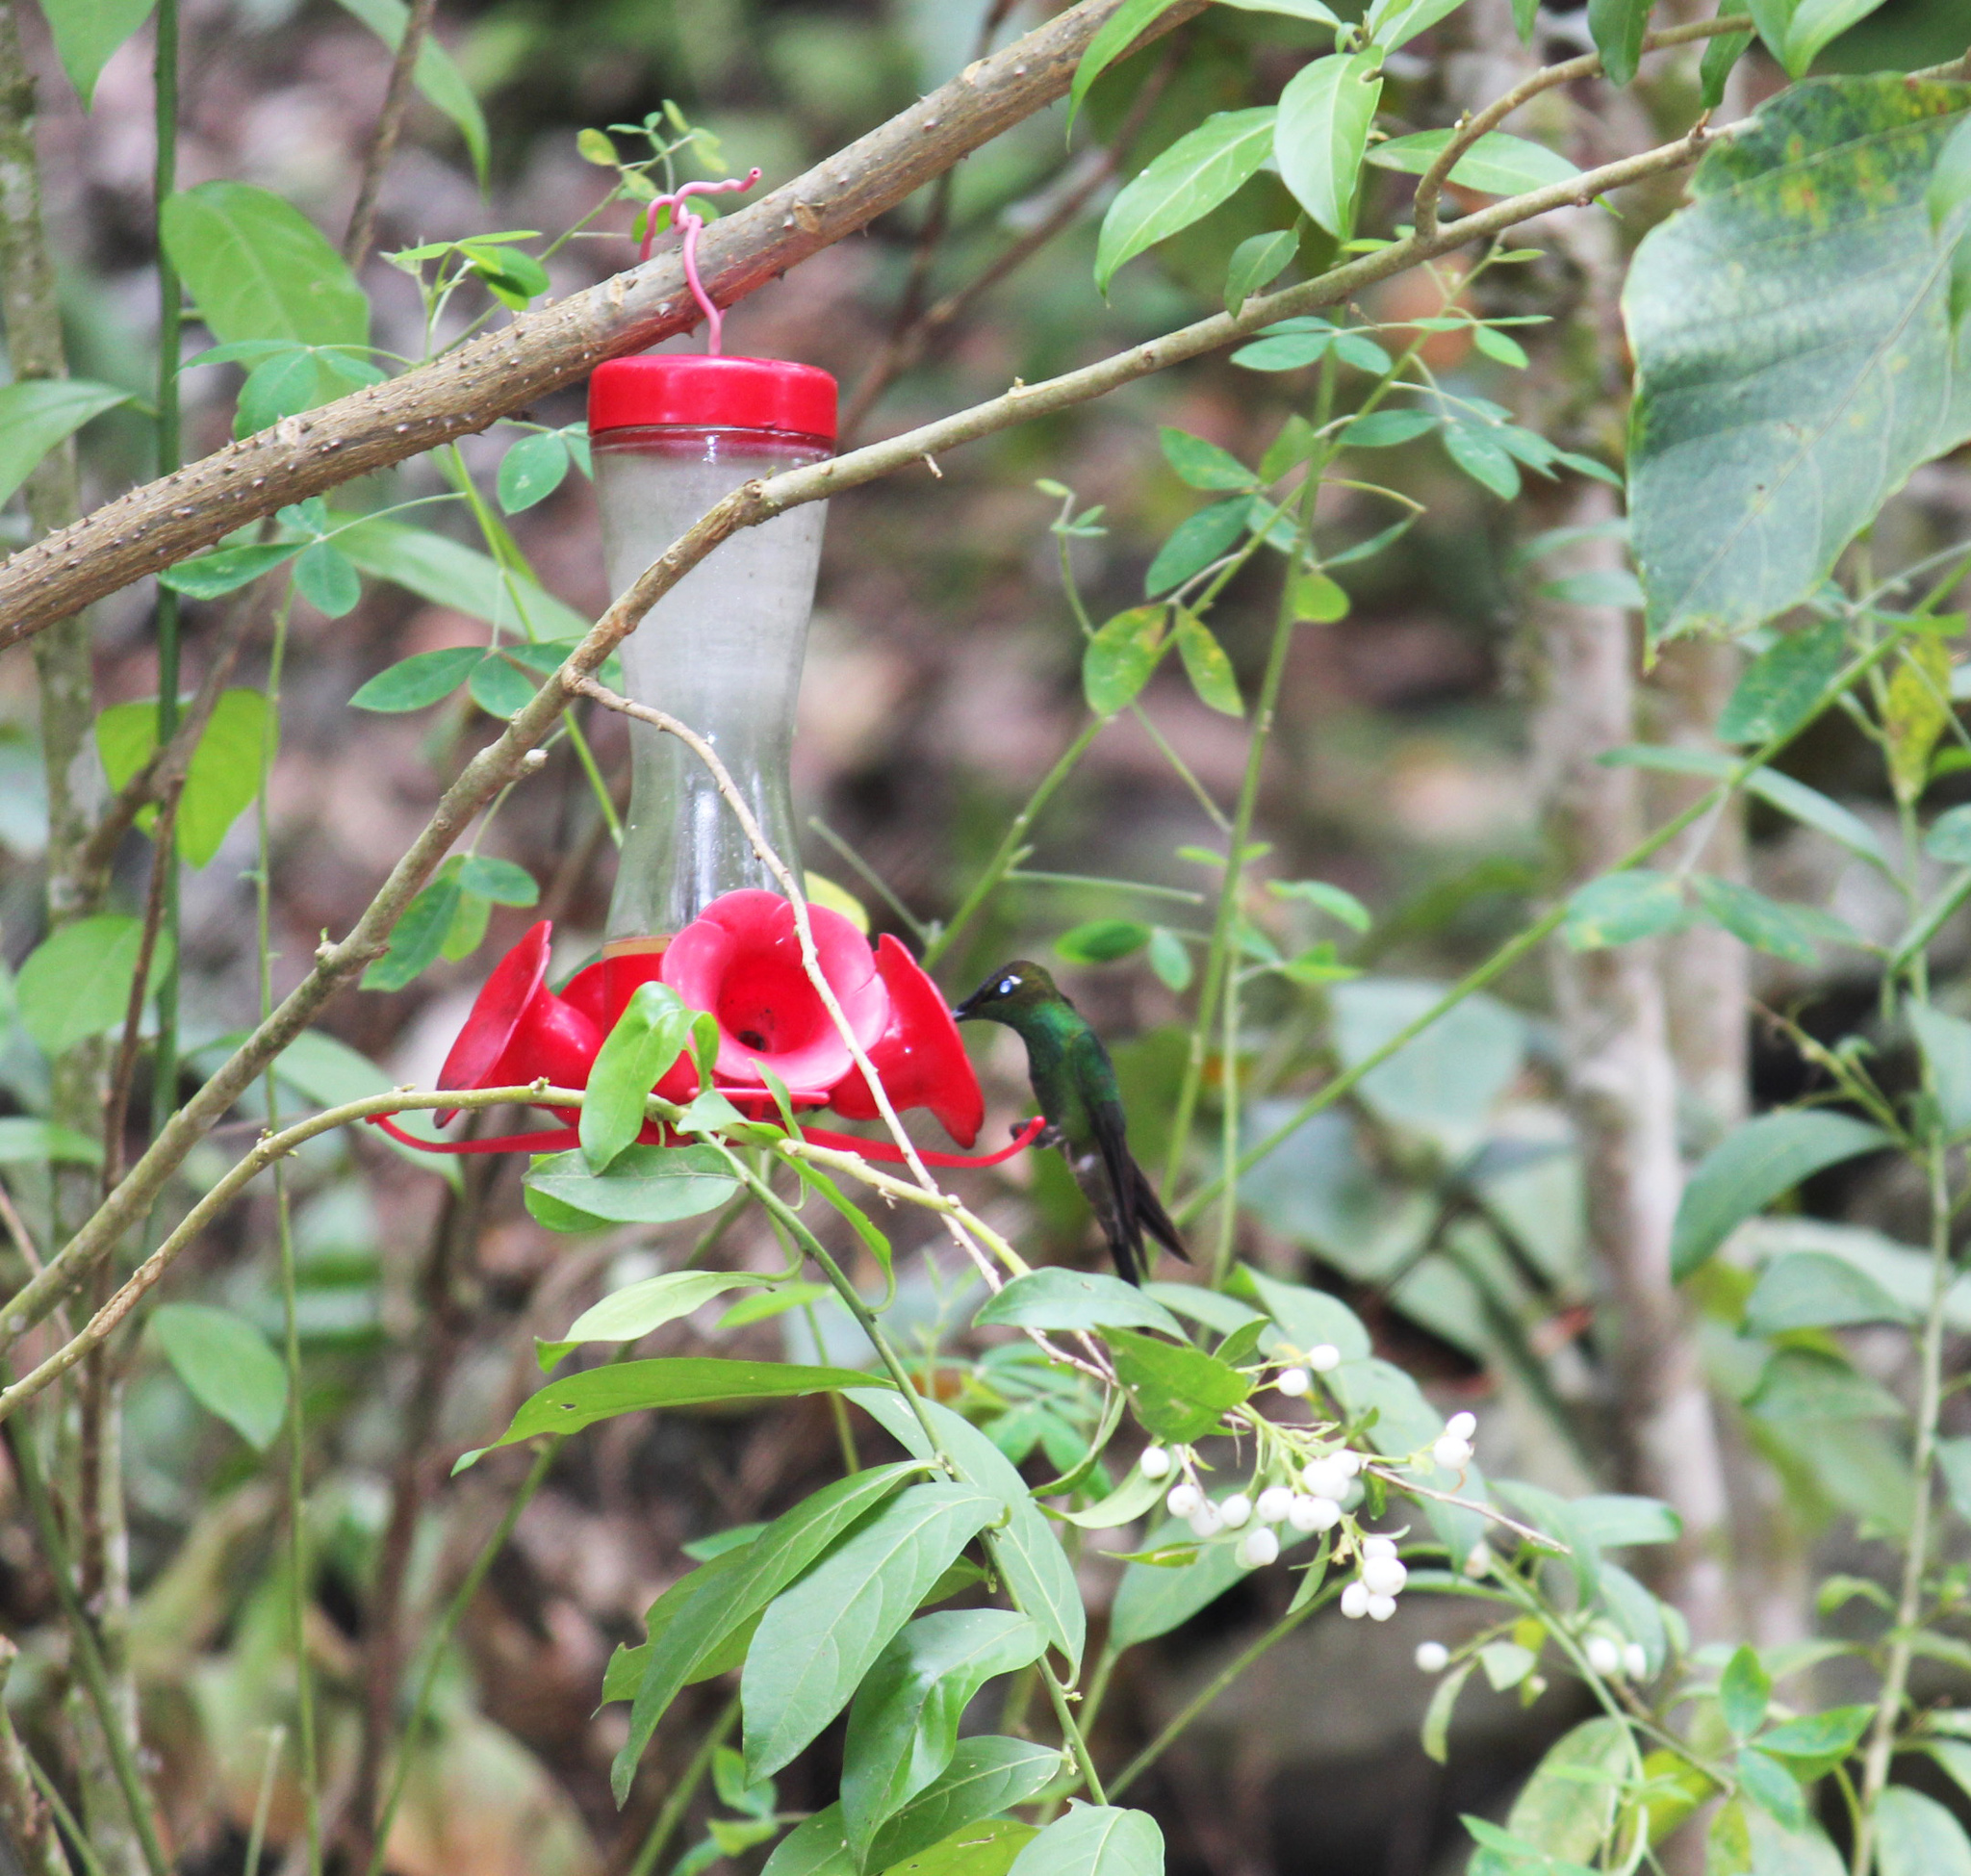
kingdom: Animalia
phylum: Chordata
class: Aves
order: Apodiformes
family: Trochilidae
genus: Ensifera
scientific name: Ensifera ensifera
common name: Sword-billed hummingbird
